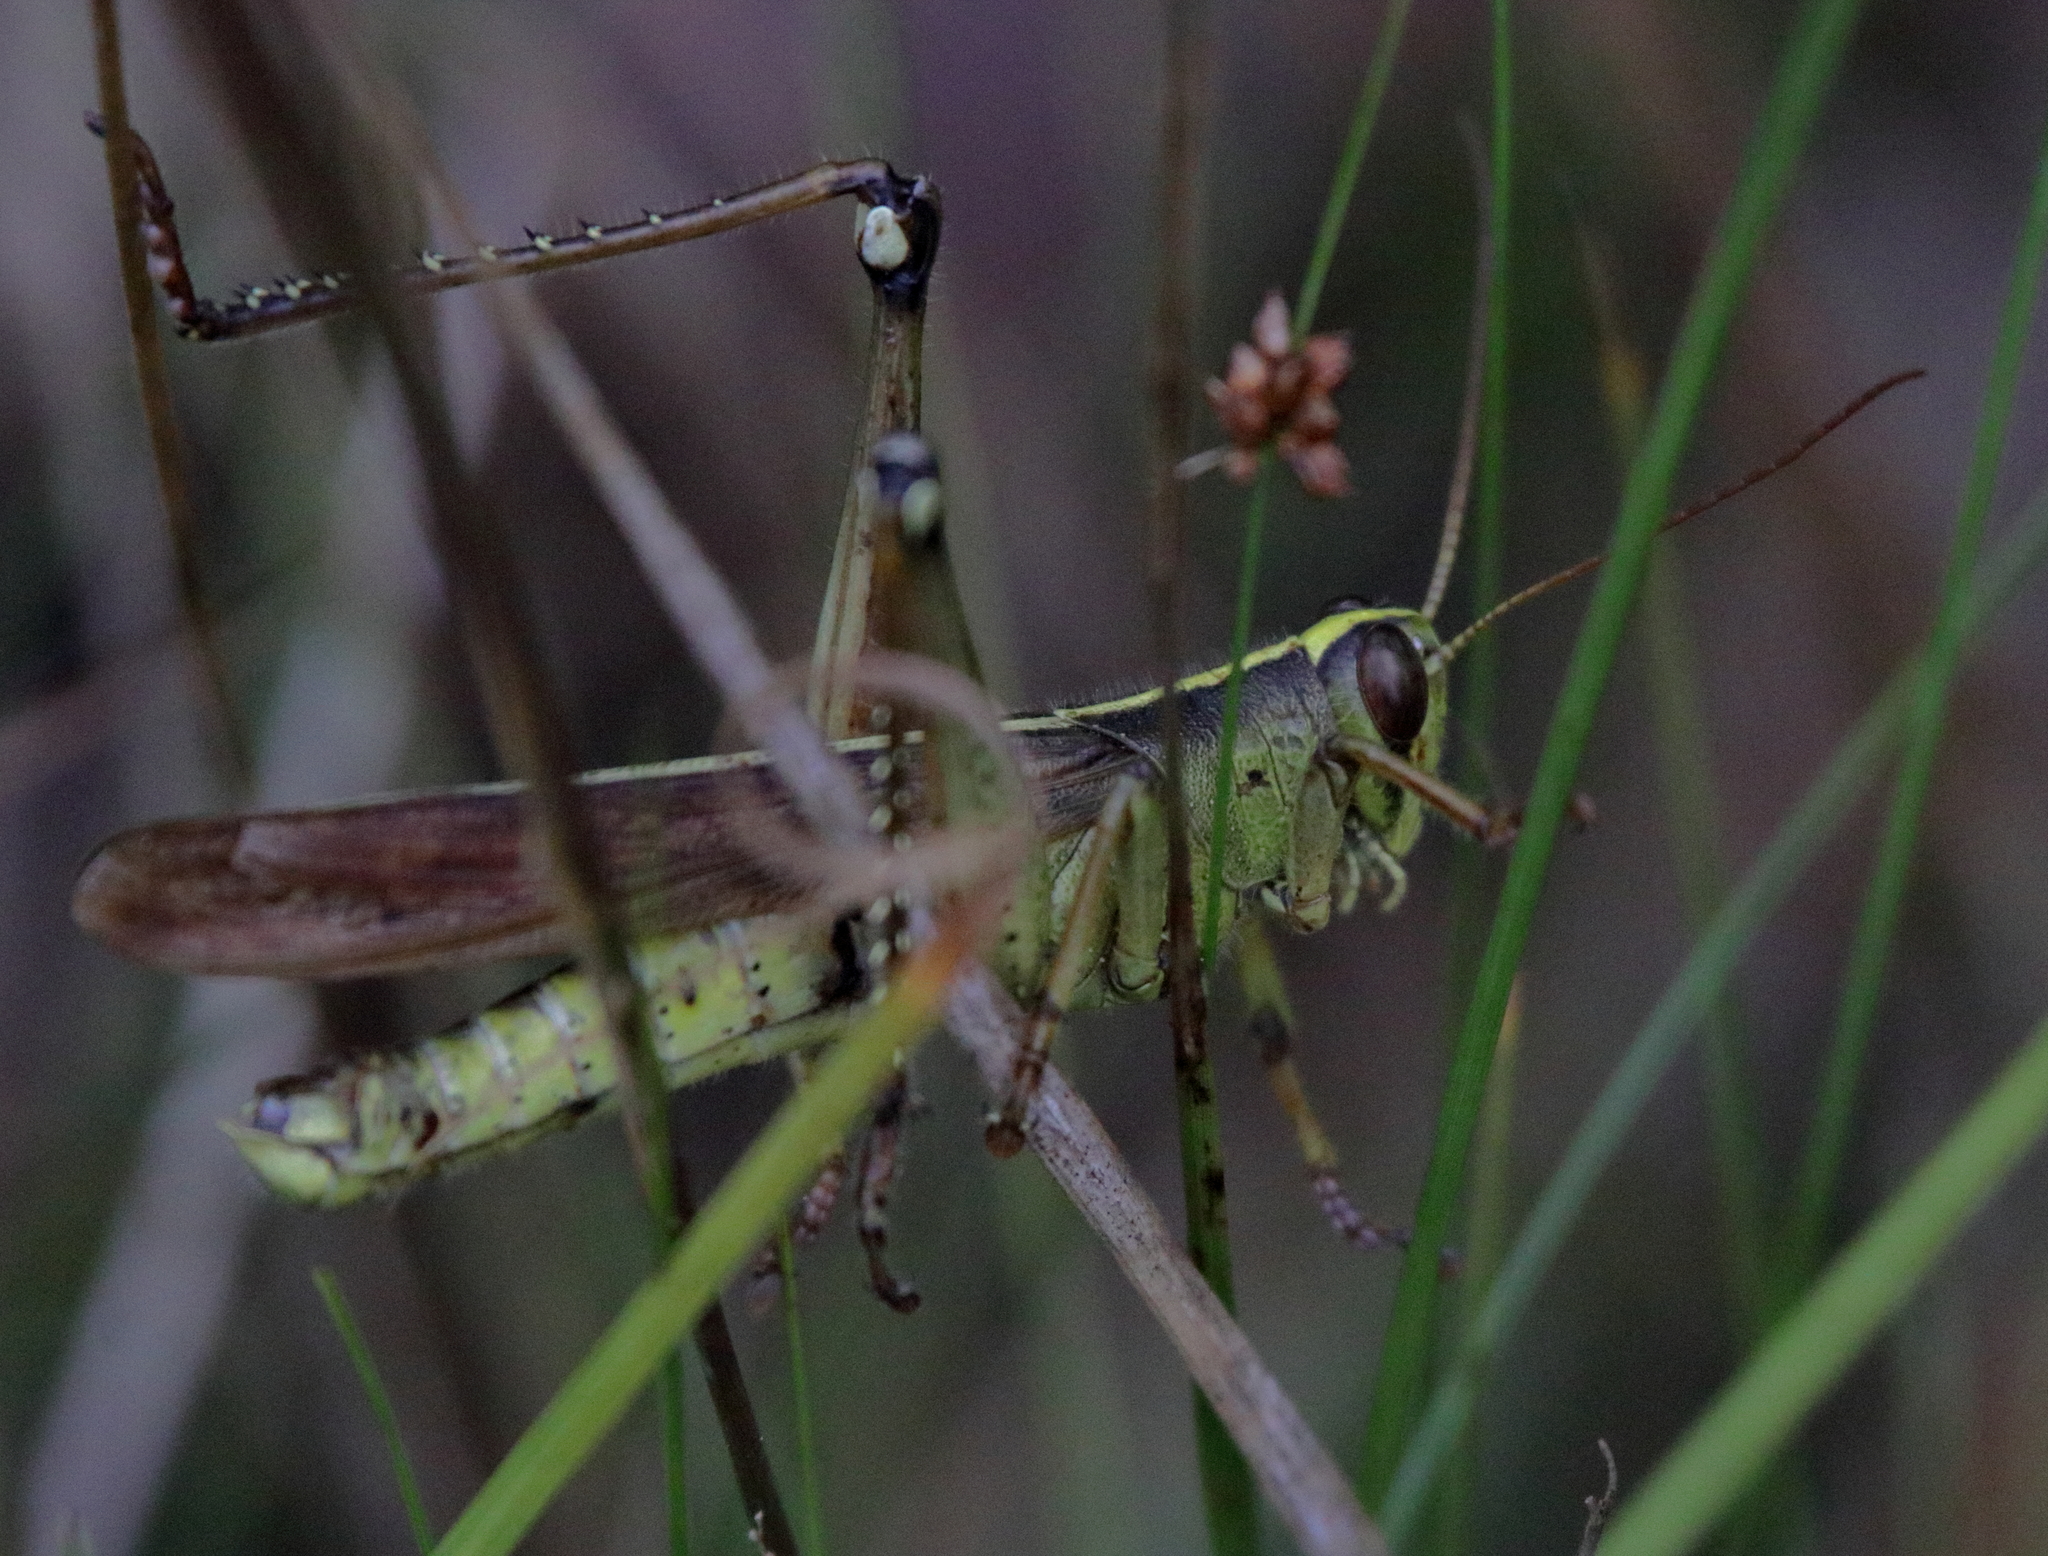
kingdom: Animalia
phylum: Arthropoda
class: Insecta
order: Orthoptera
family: Acrididae
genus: Schistocerca
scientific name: Schistocerca alutacea
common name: Leather-colored bird locust
